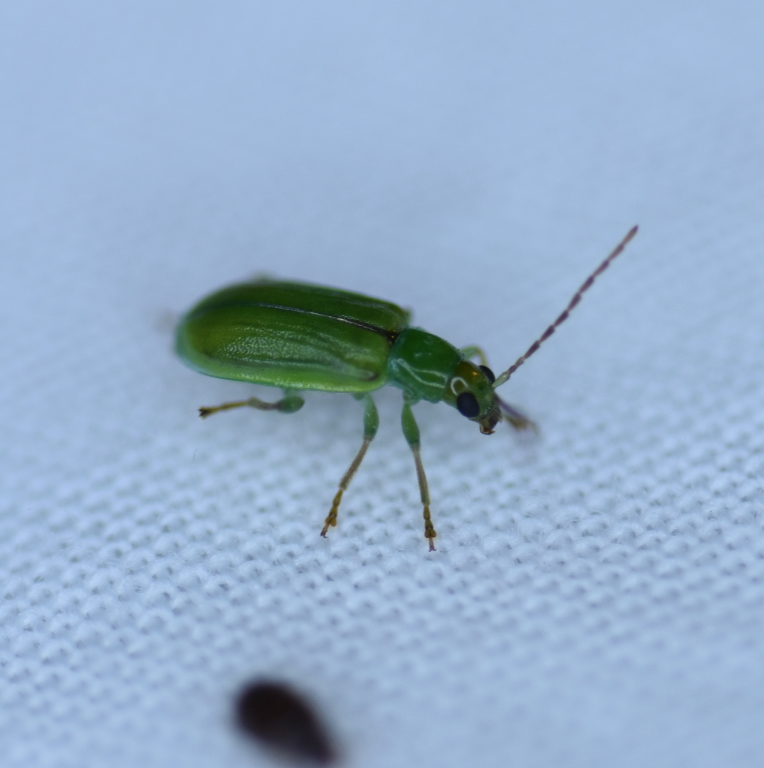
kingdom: Animalia
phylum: Arthropoda
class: Insecta
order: Coleoptera
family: Chrysomelidae
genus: Diabrotica
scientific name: Diabrotica barberi
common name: Northern corn rootworm
